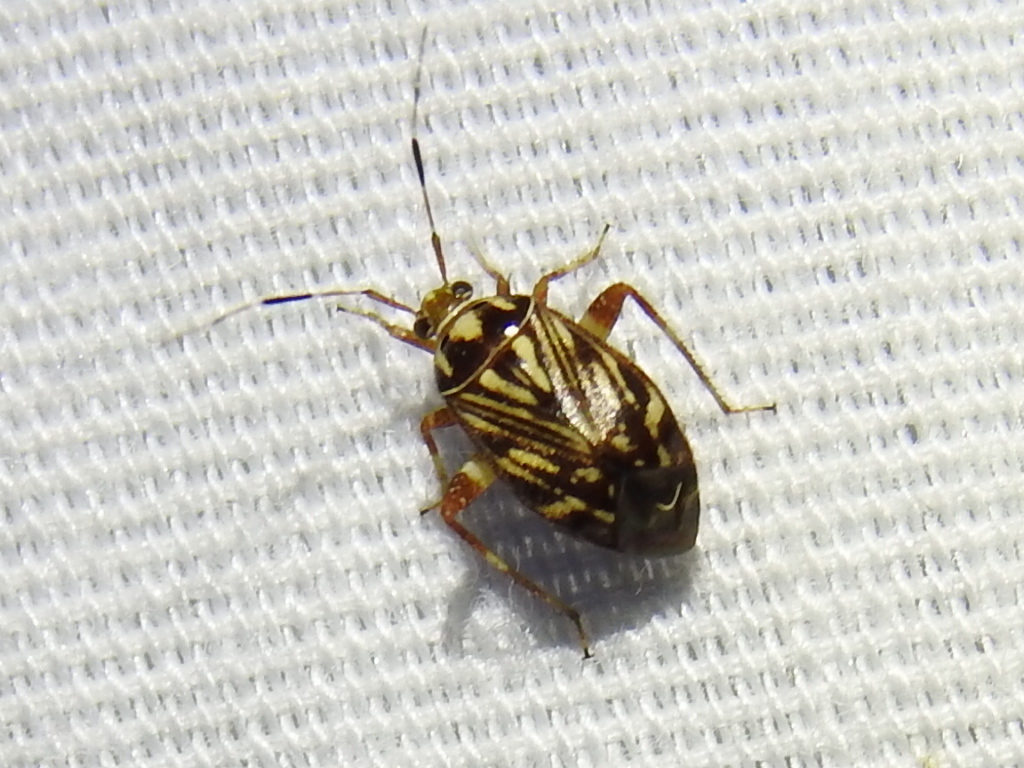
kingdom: Animalia
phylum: Arthropoda
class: Insecta
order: Hemiptera
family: Miridae
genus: Taedia
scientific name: Taedia virgulata
